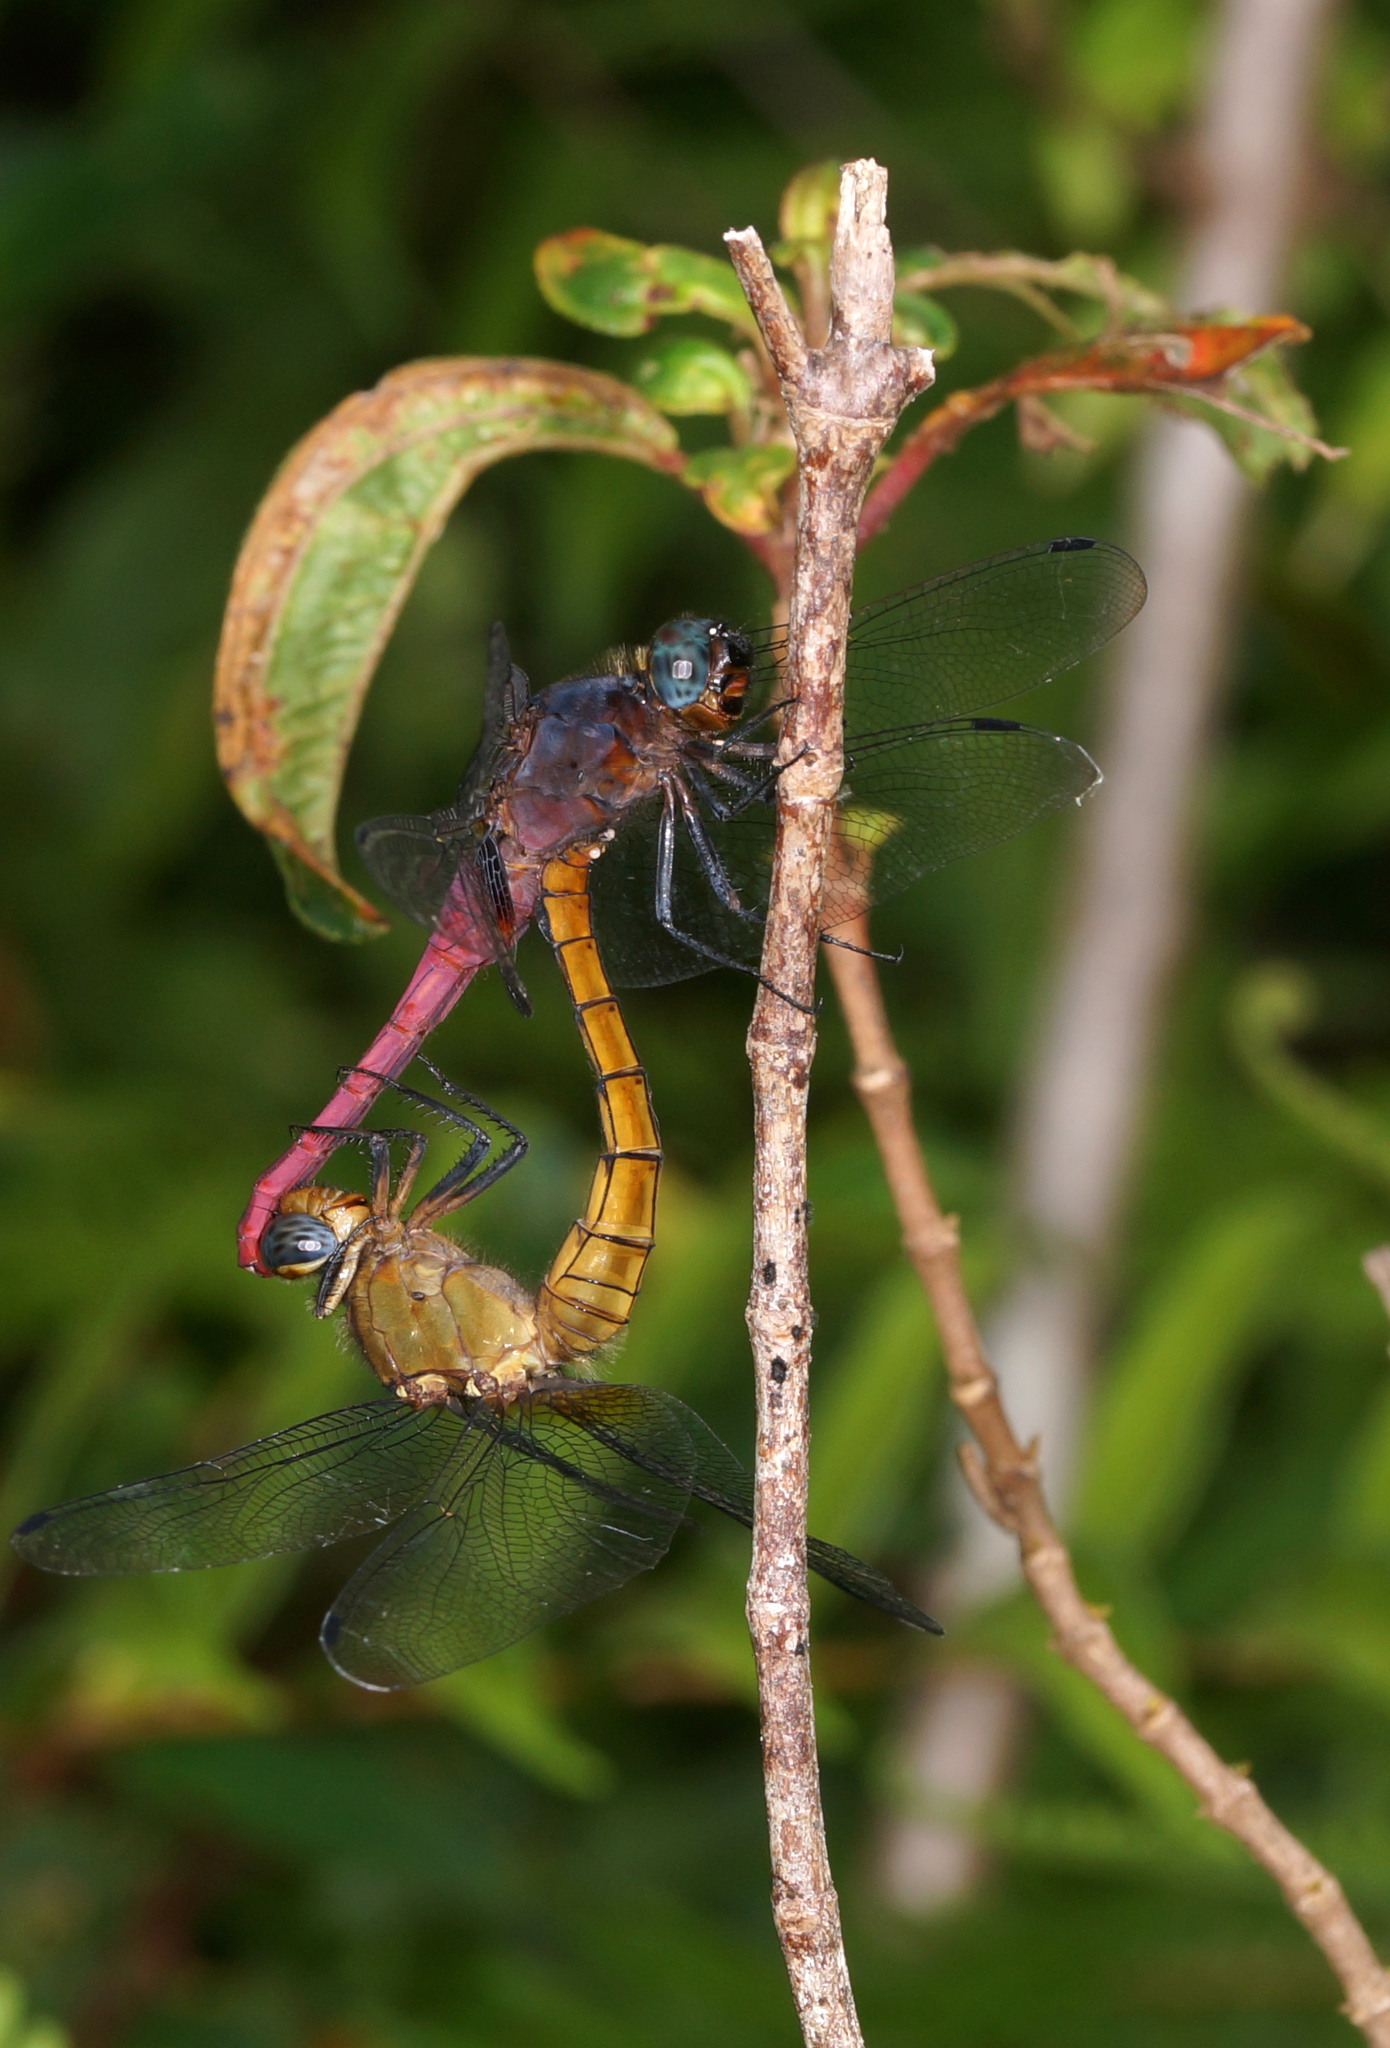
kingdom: Animalia
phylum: Arthropoda
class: Insecta
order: Odonata
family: Libellulidae
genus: Orthetrum
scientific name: Orthetrum pruinosum
